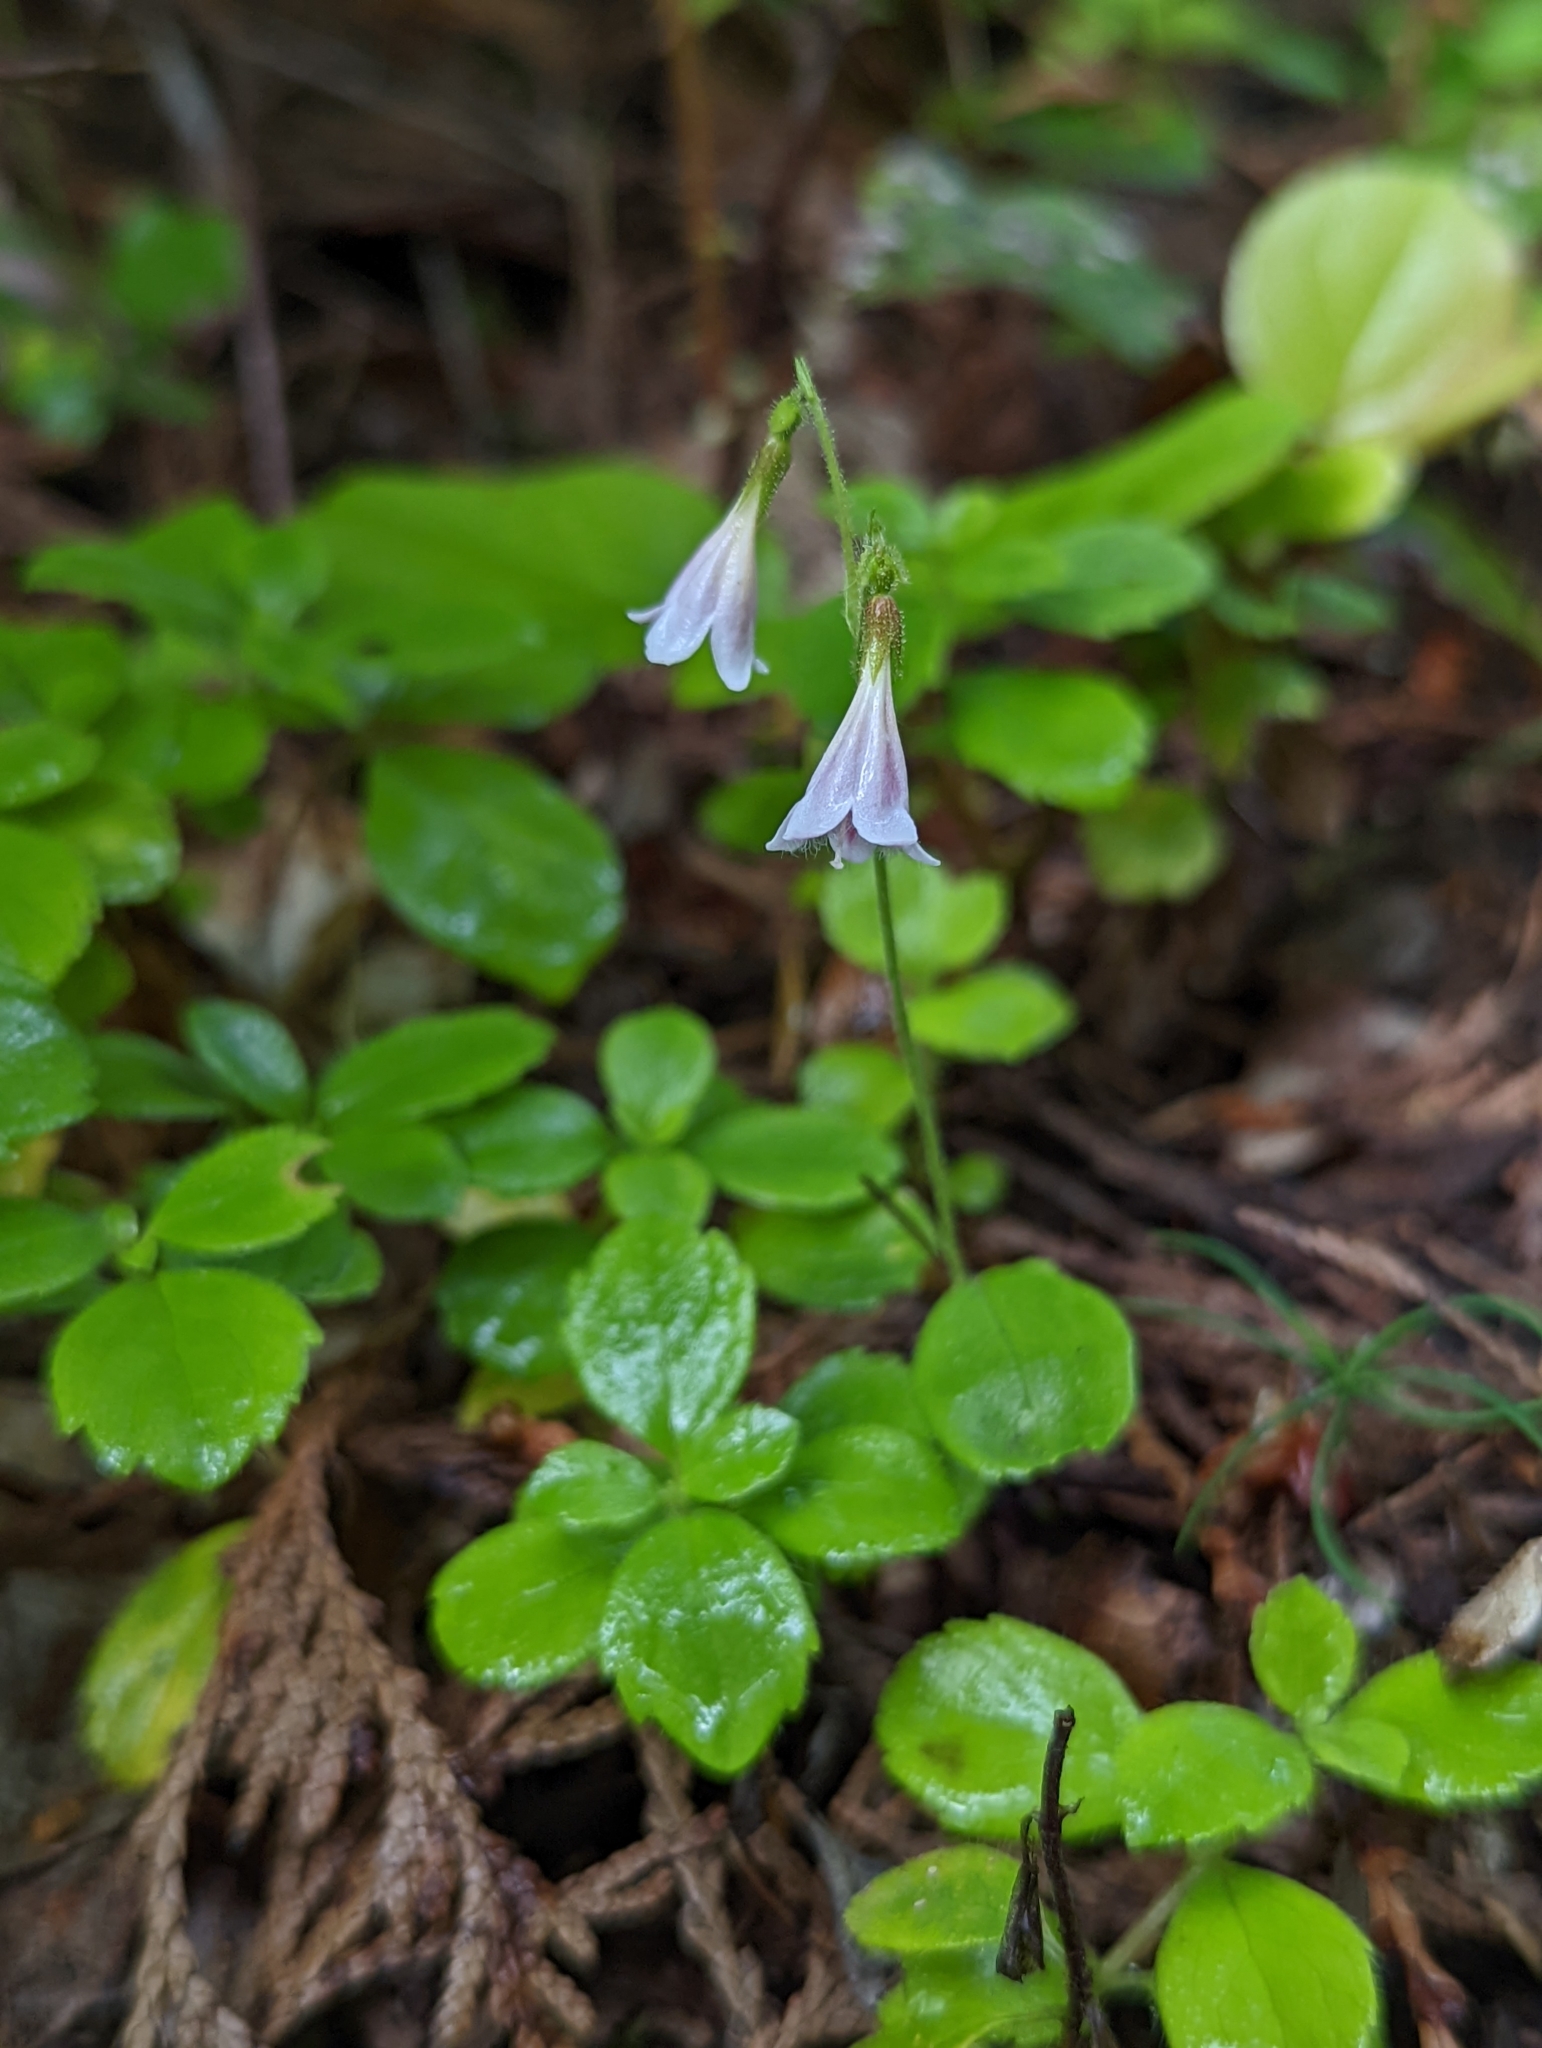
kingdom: Plantae
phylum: Tracheophyta
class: Magnoliopsida
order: Dipsacales
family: Caprifoliaceae
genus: Linnaea
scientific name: Linnaea borealis
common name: Twinflower
